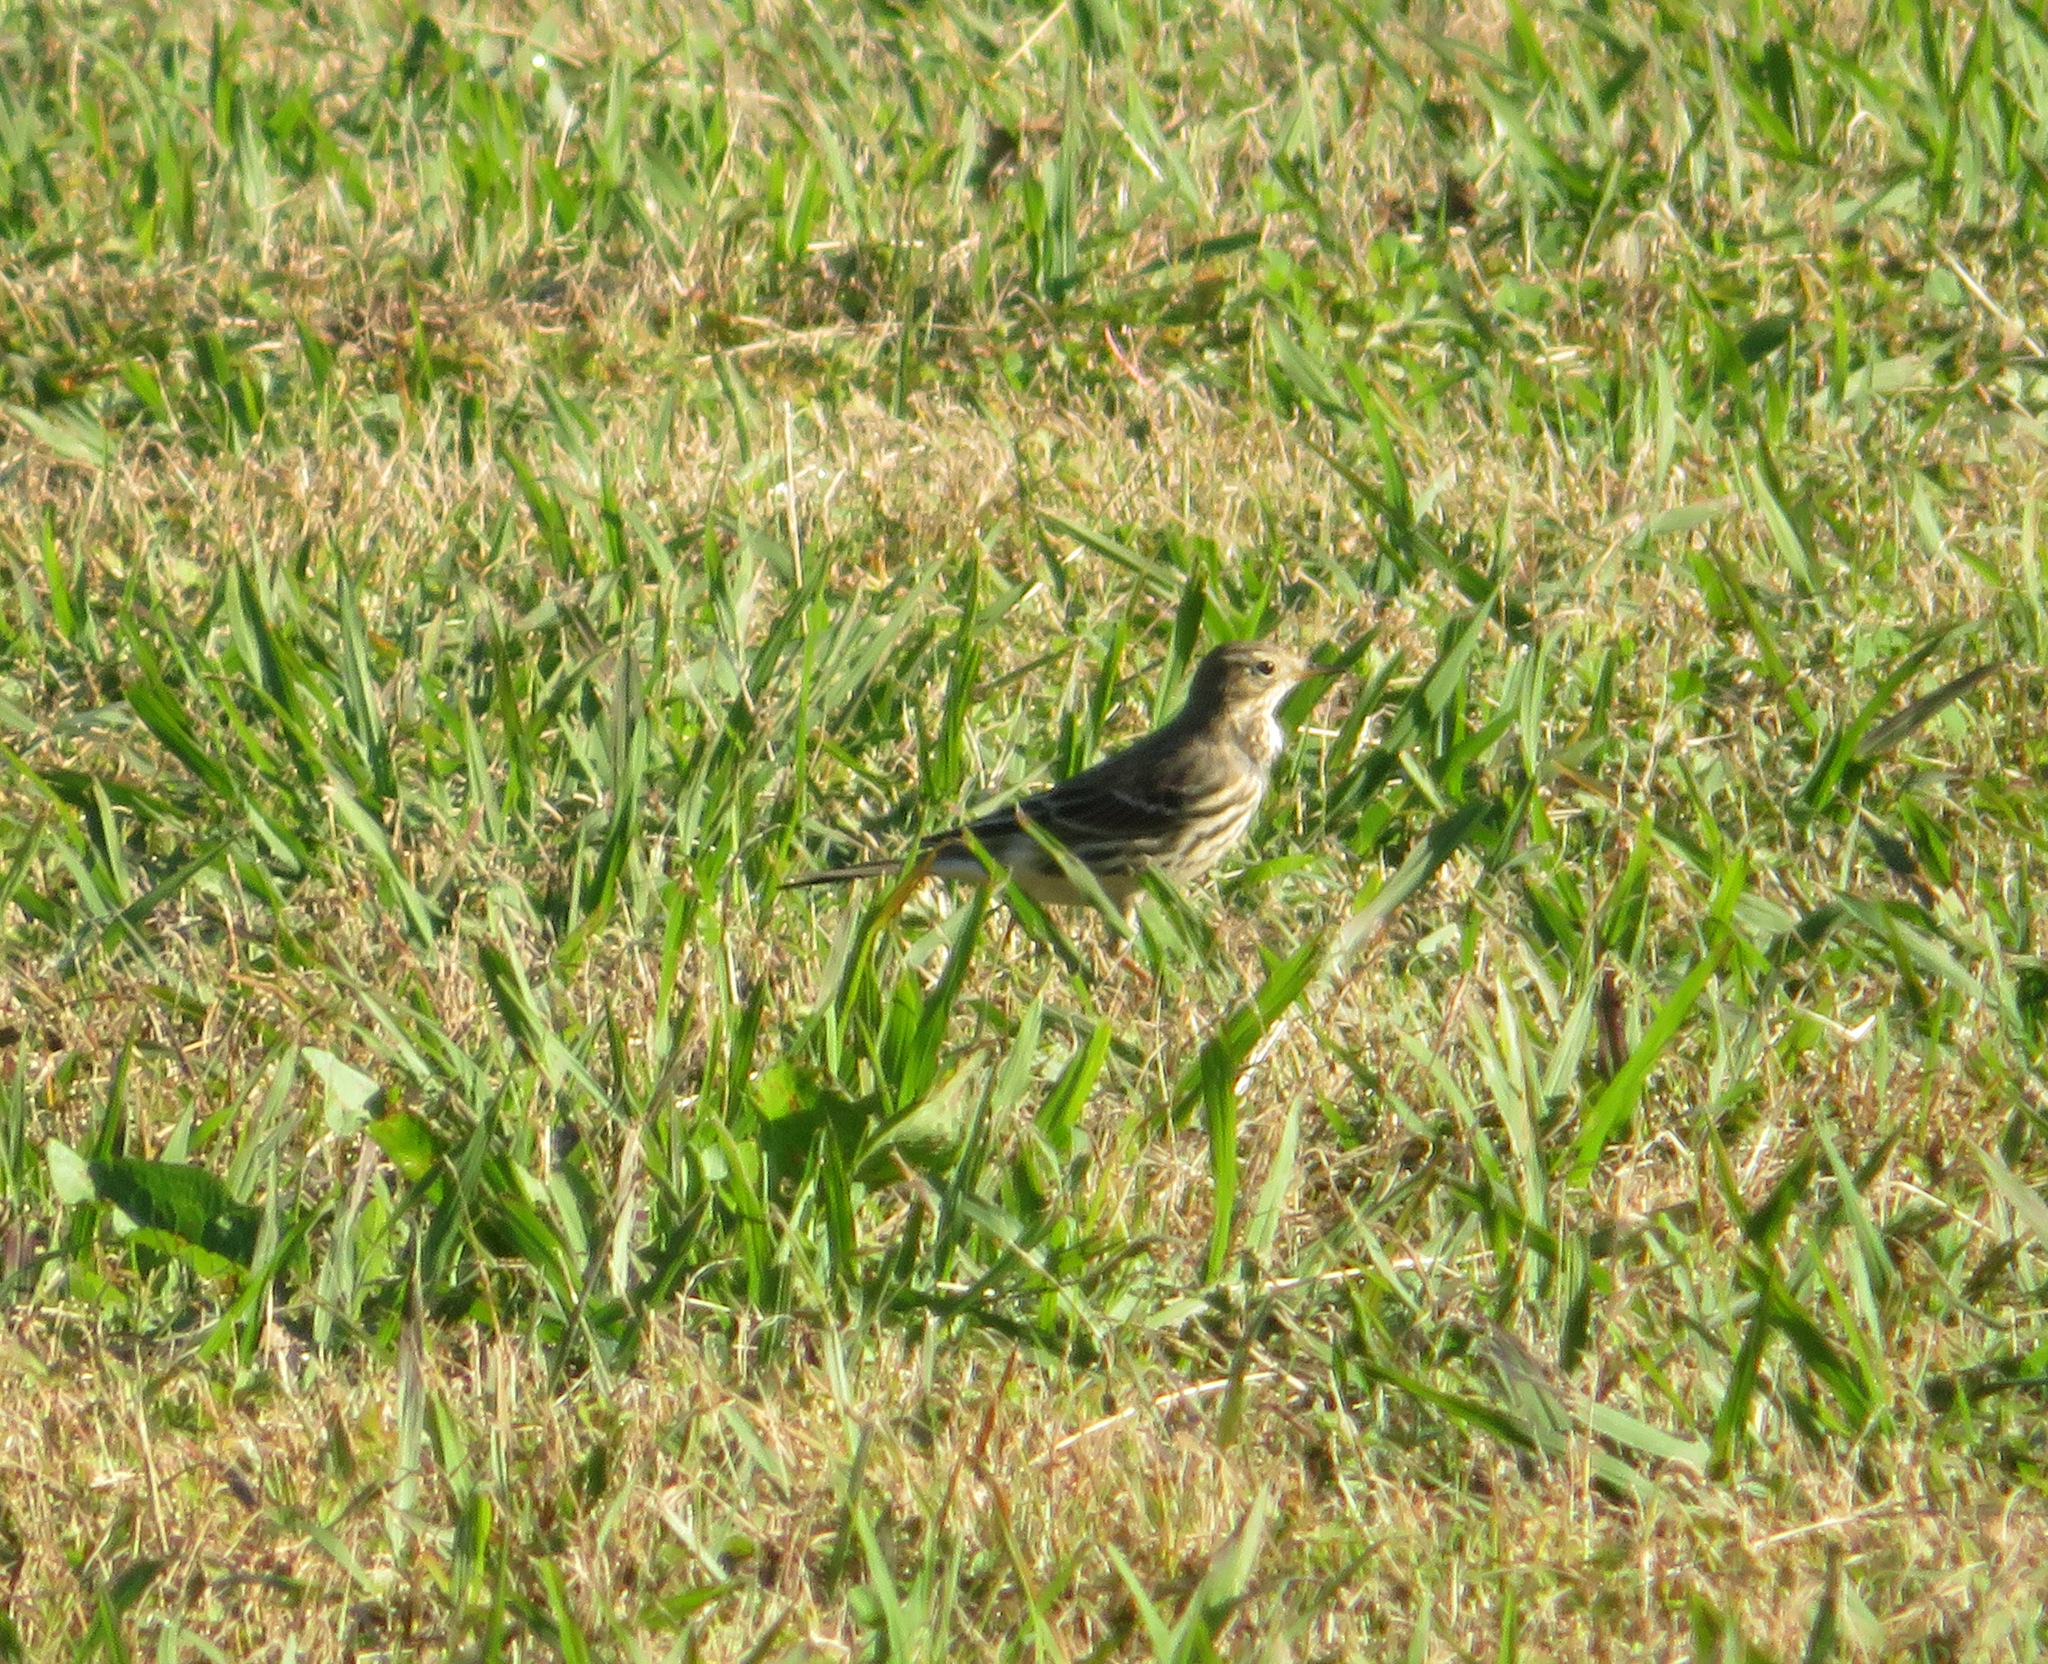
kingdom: Animalia
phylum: Chordata
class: Aves
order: Passeriformes
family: Motacillidae
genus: Anthus
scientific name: Anthus rubescens
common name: Buff-bellied pipit
